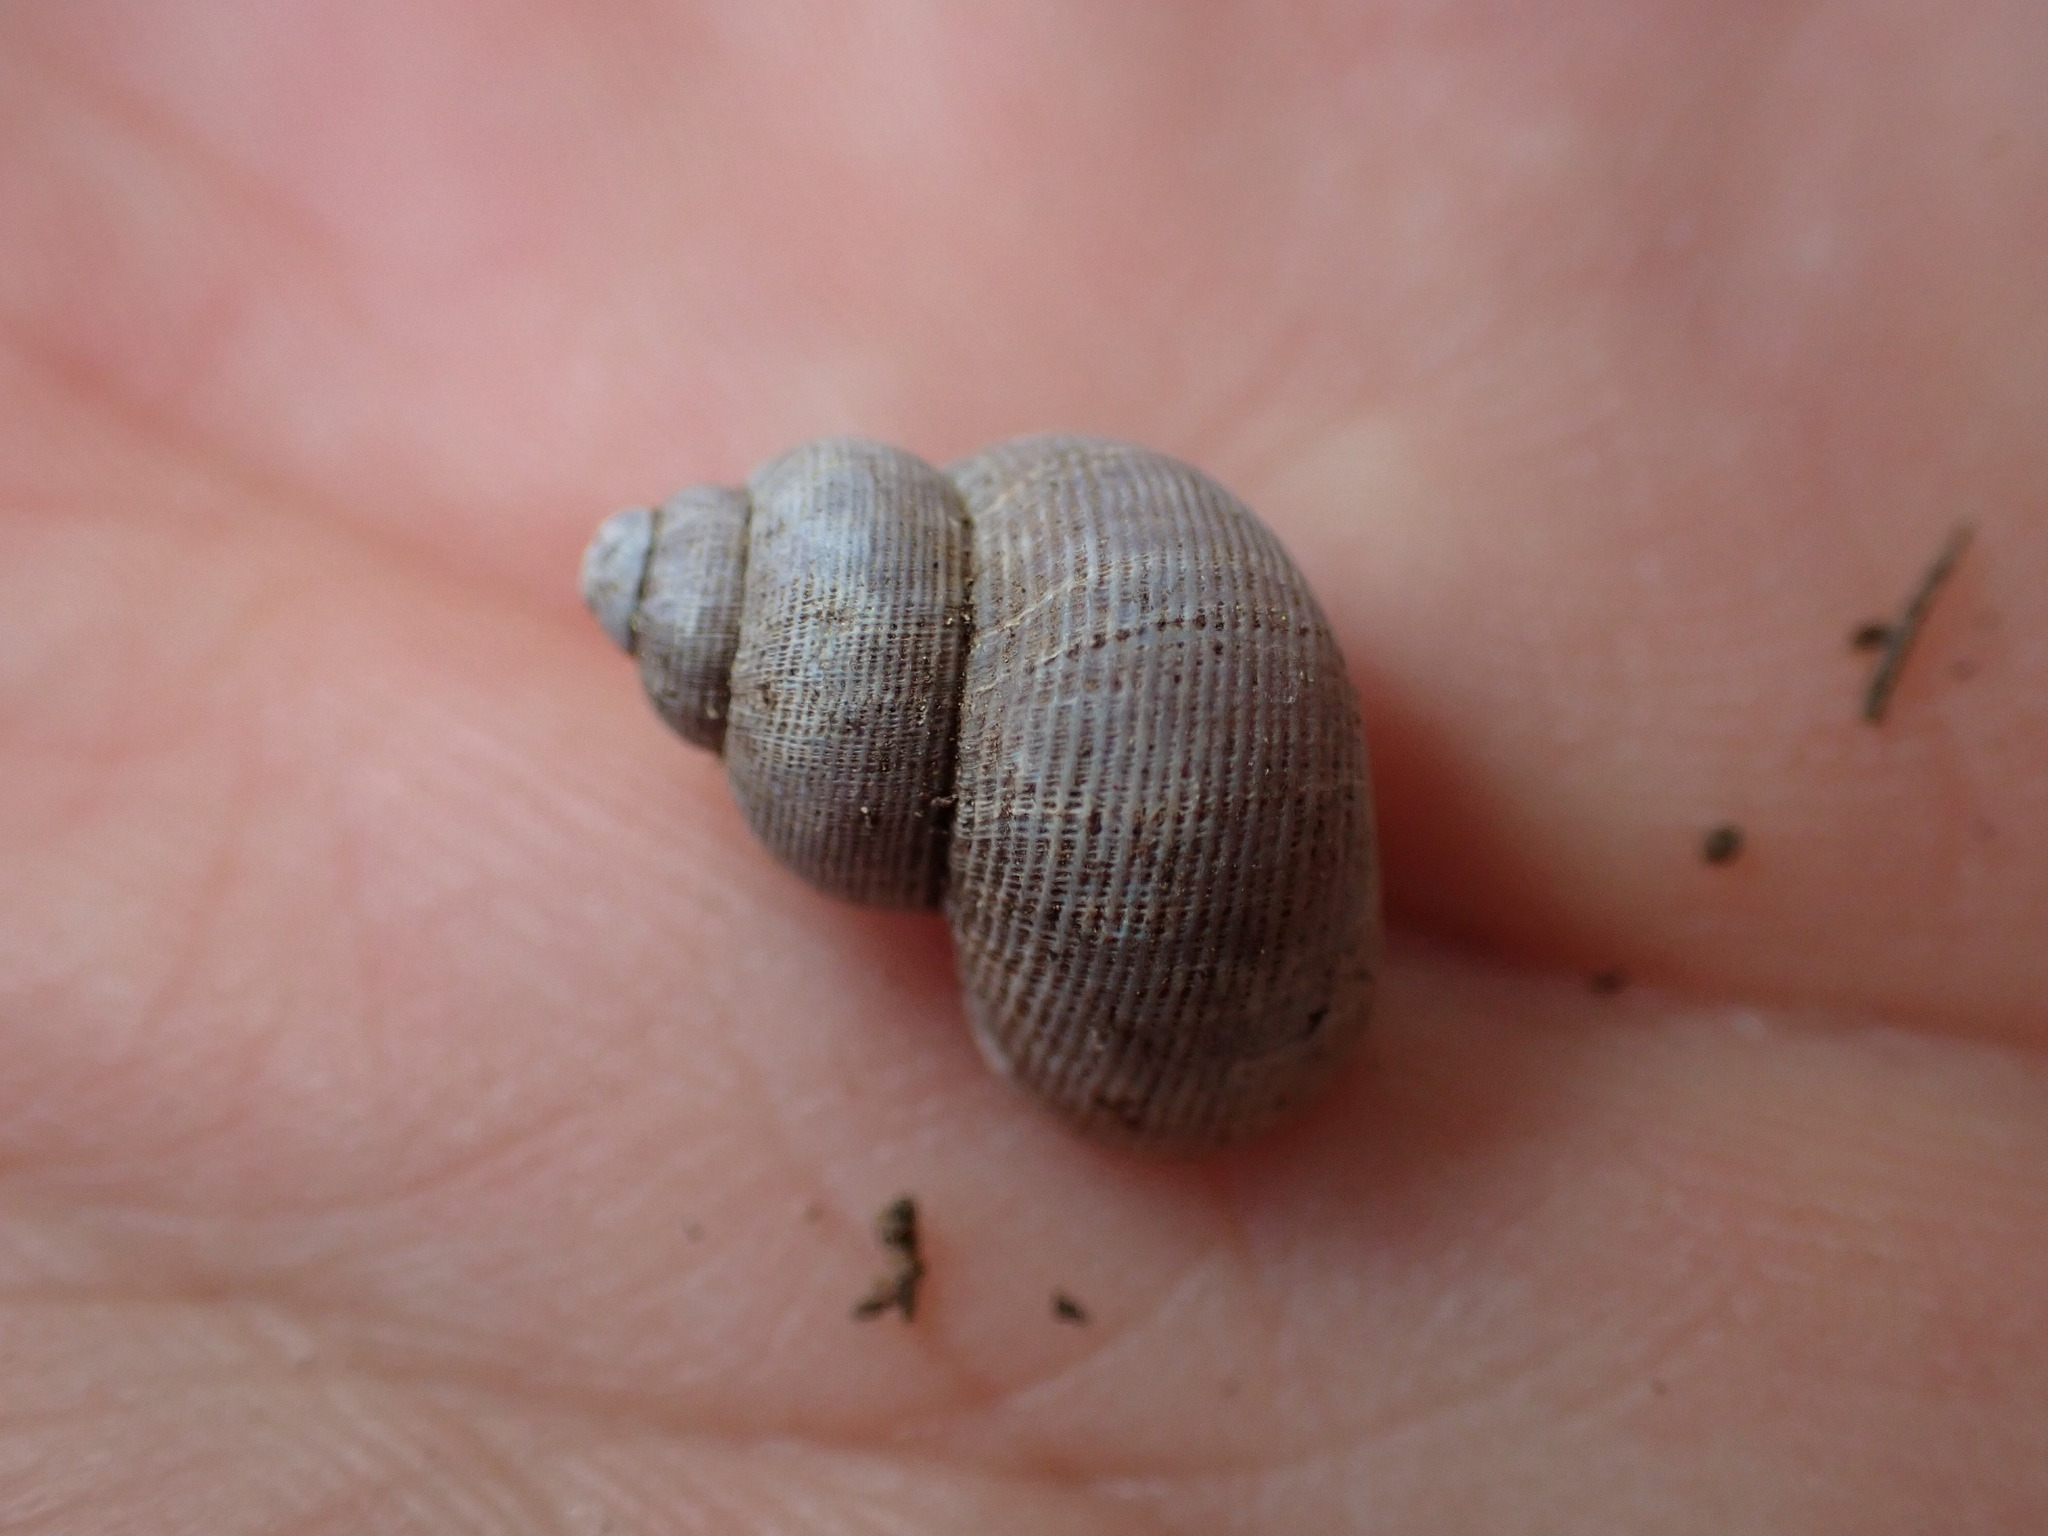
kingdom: Animalia
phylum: Mollusca
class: Gastropoda
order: Littorinimorpha
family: Pomatiidae
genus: Pomatias
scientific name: Pomatias elegans
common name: Red-mouthed snail
